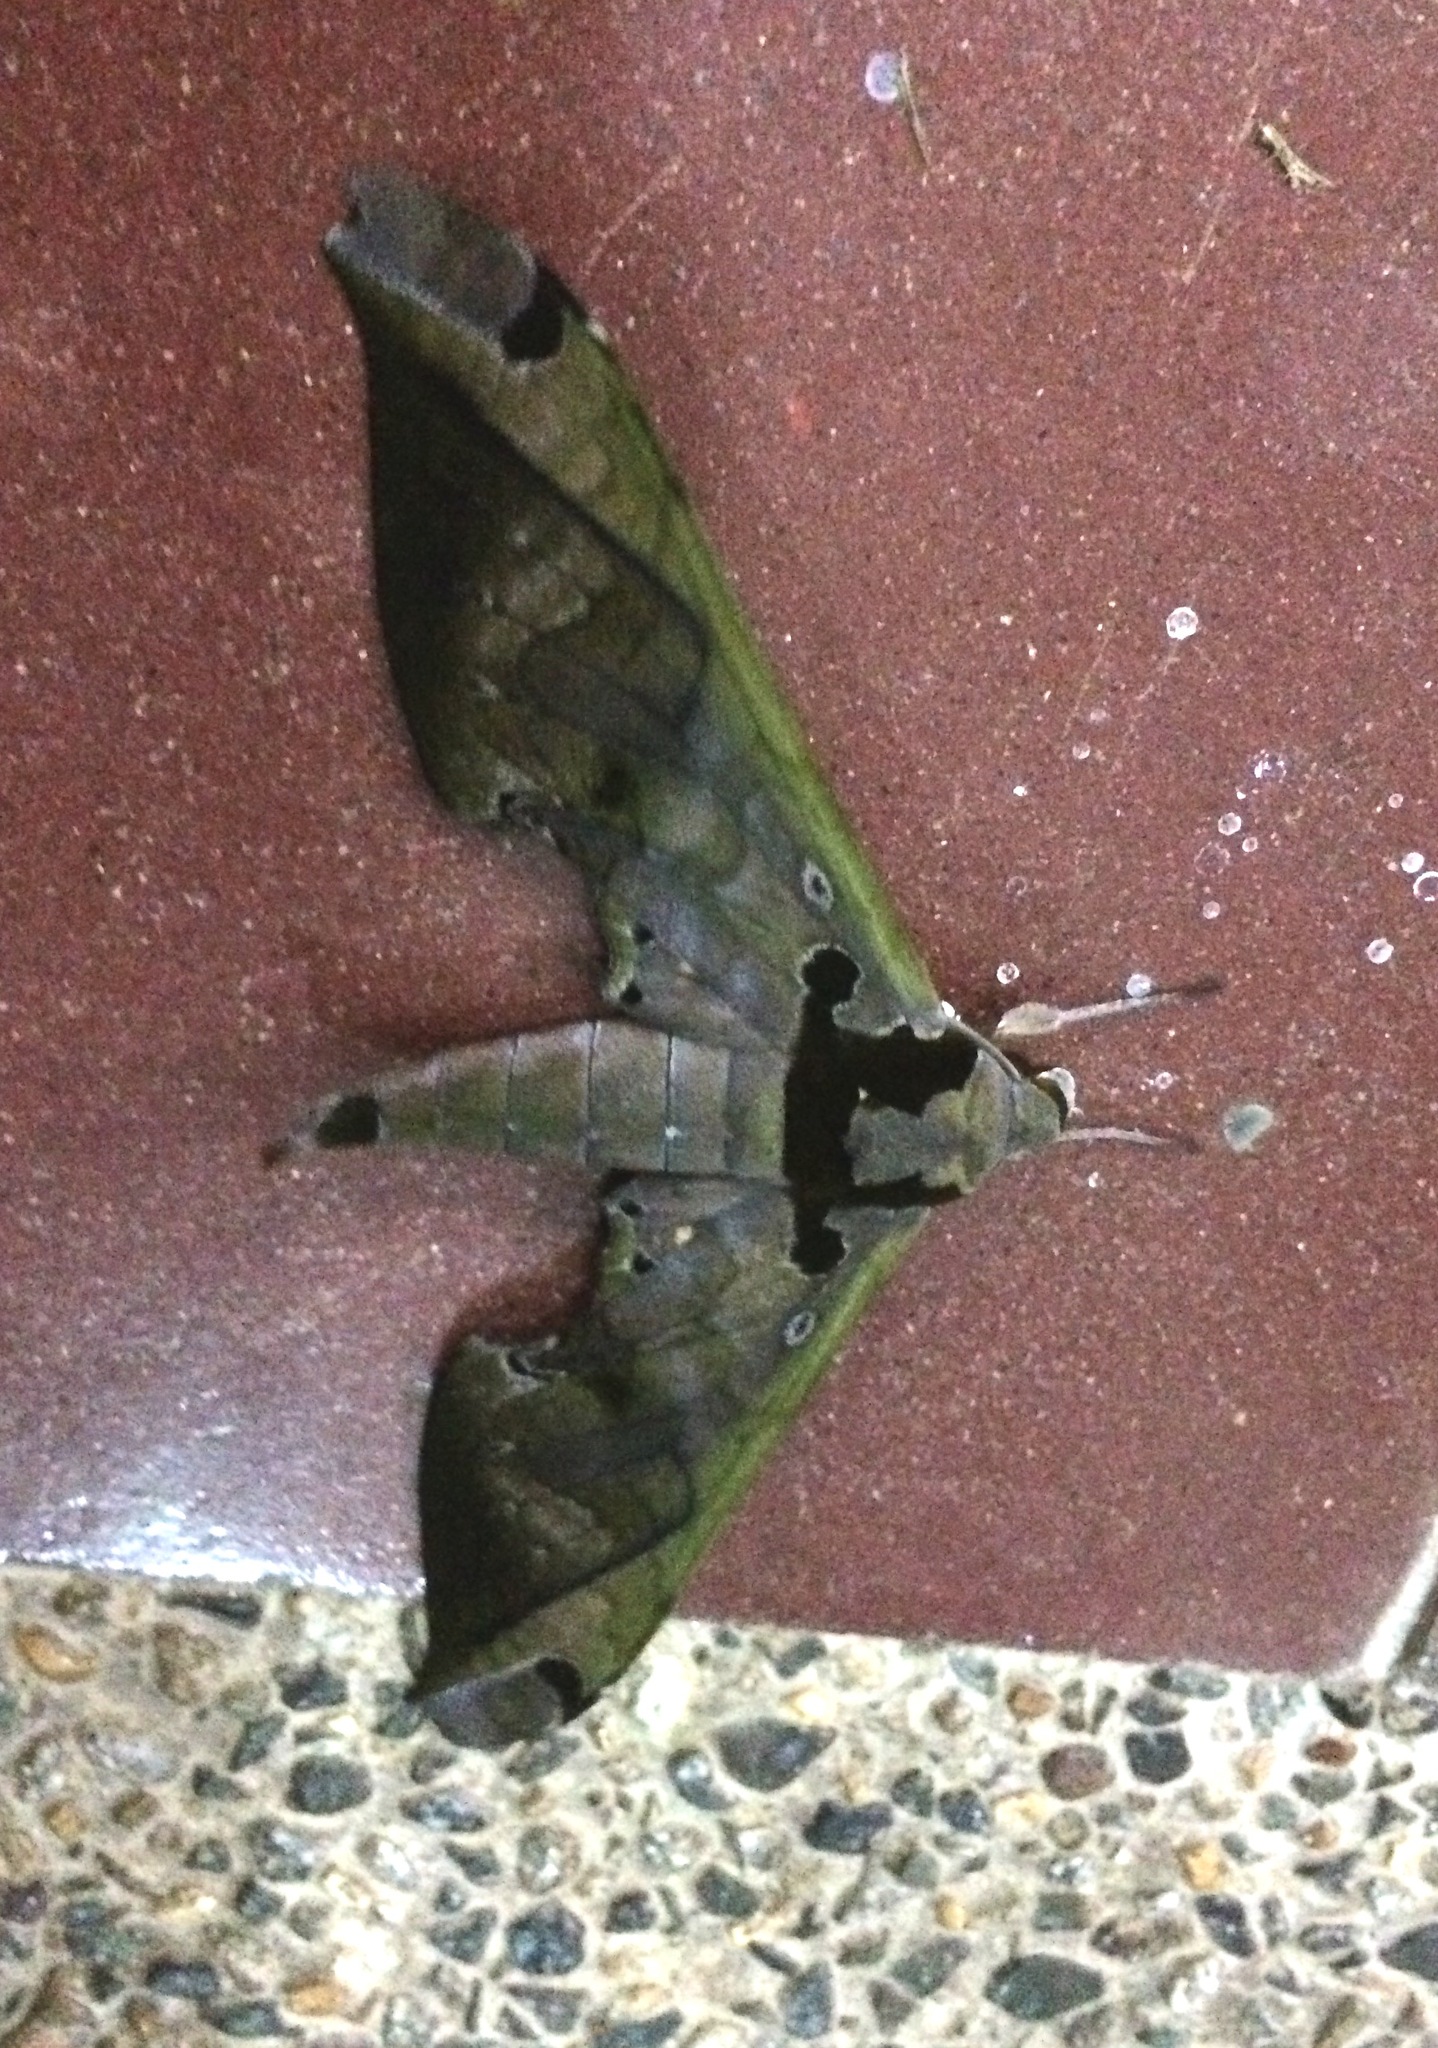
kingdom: Animalia
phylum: Arthropoda
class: Insecta
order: Lepidoptera
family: Sphingidae
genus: Adhemarius
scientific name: Adhemarius tigrina
